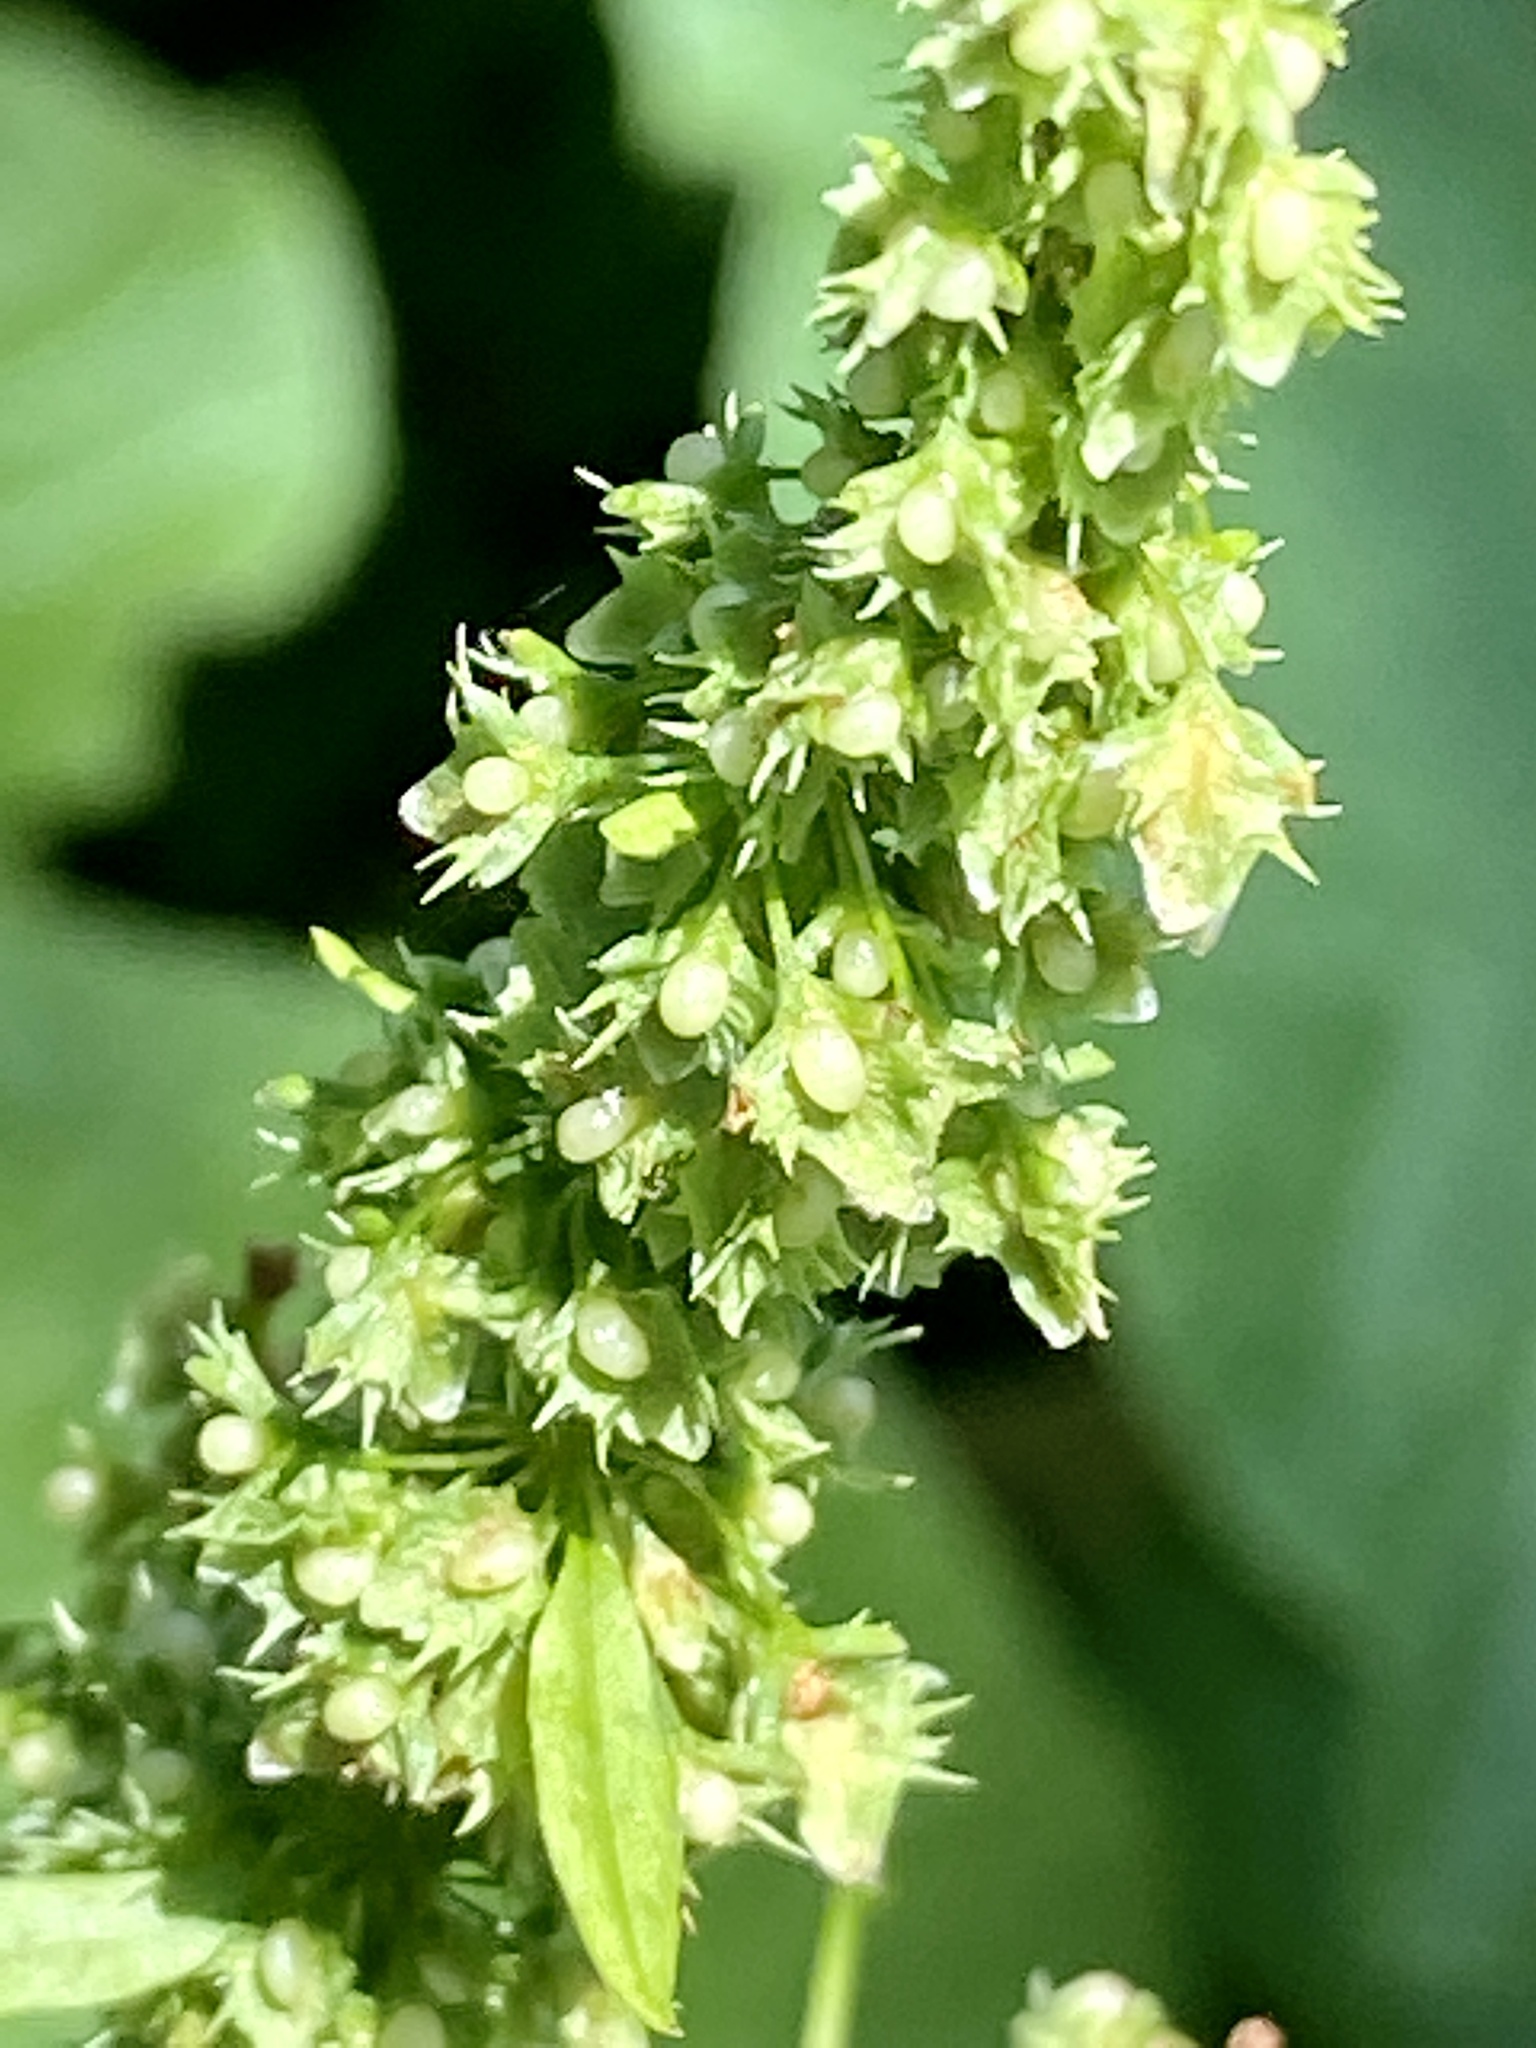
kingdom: Plantae
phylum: Tracheophyta
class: Magnoliopsida
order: Caryophyllales
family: Polygonaceae
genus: Rumex
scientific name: Rumex obtusifolius
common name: Bitter dock
